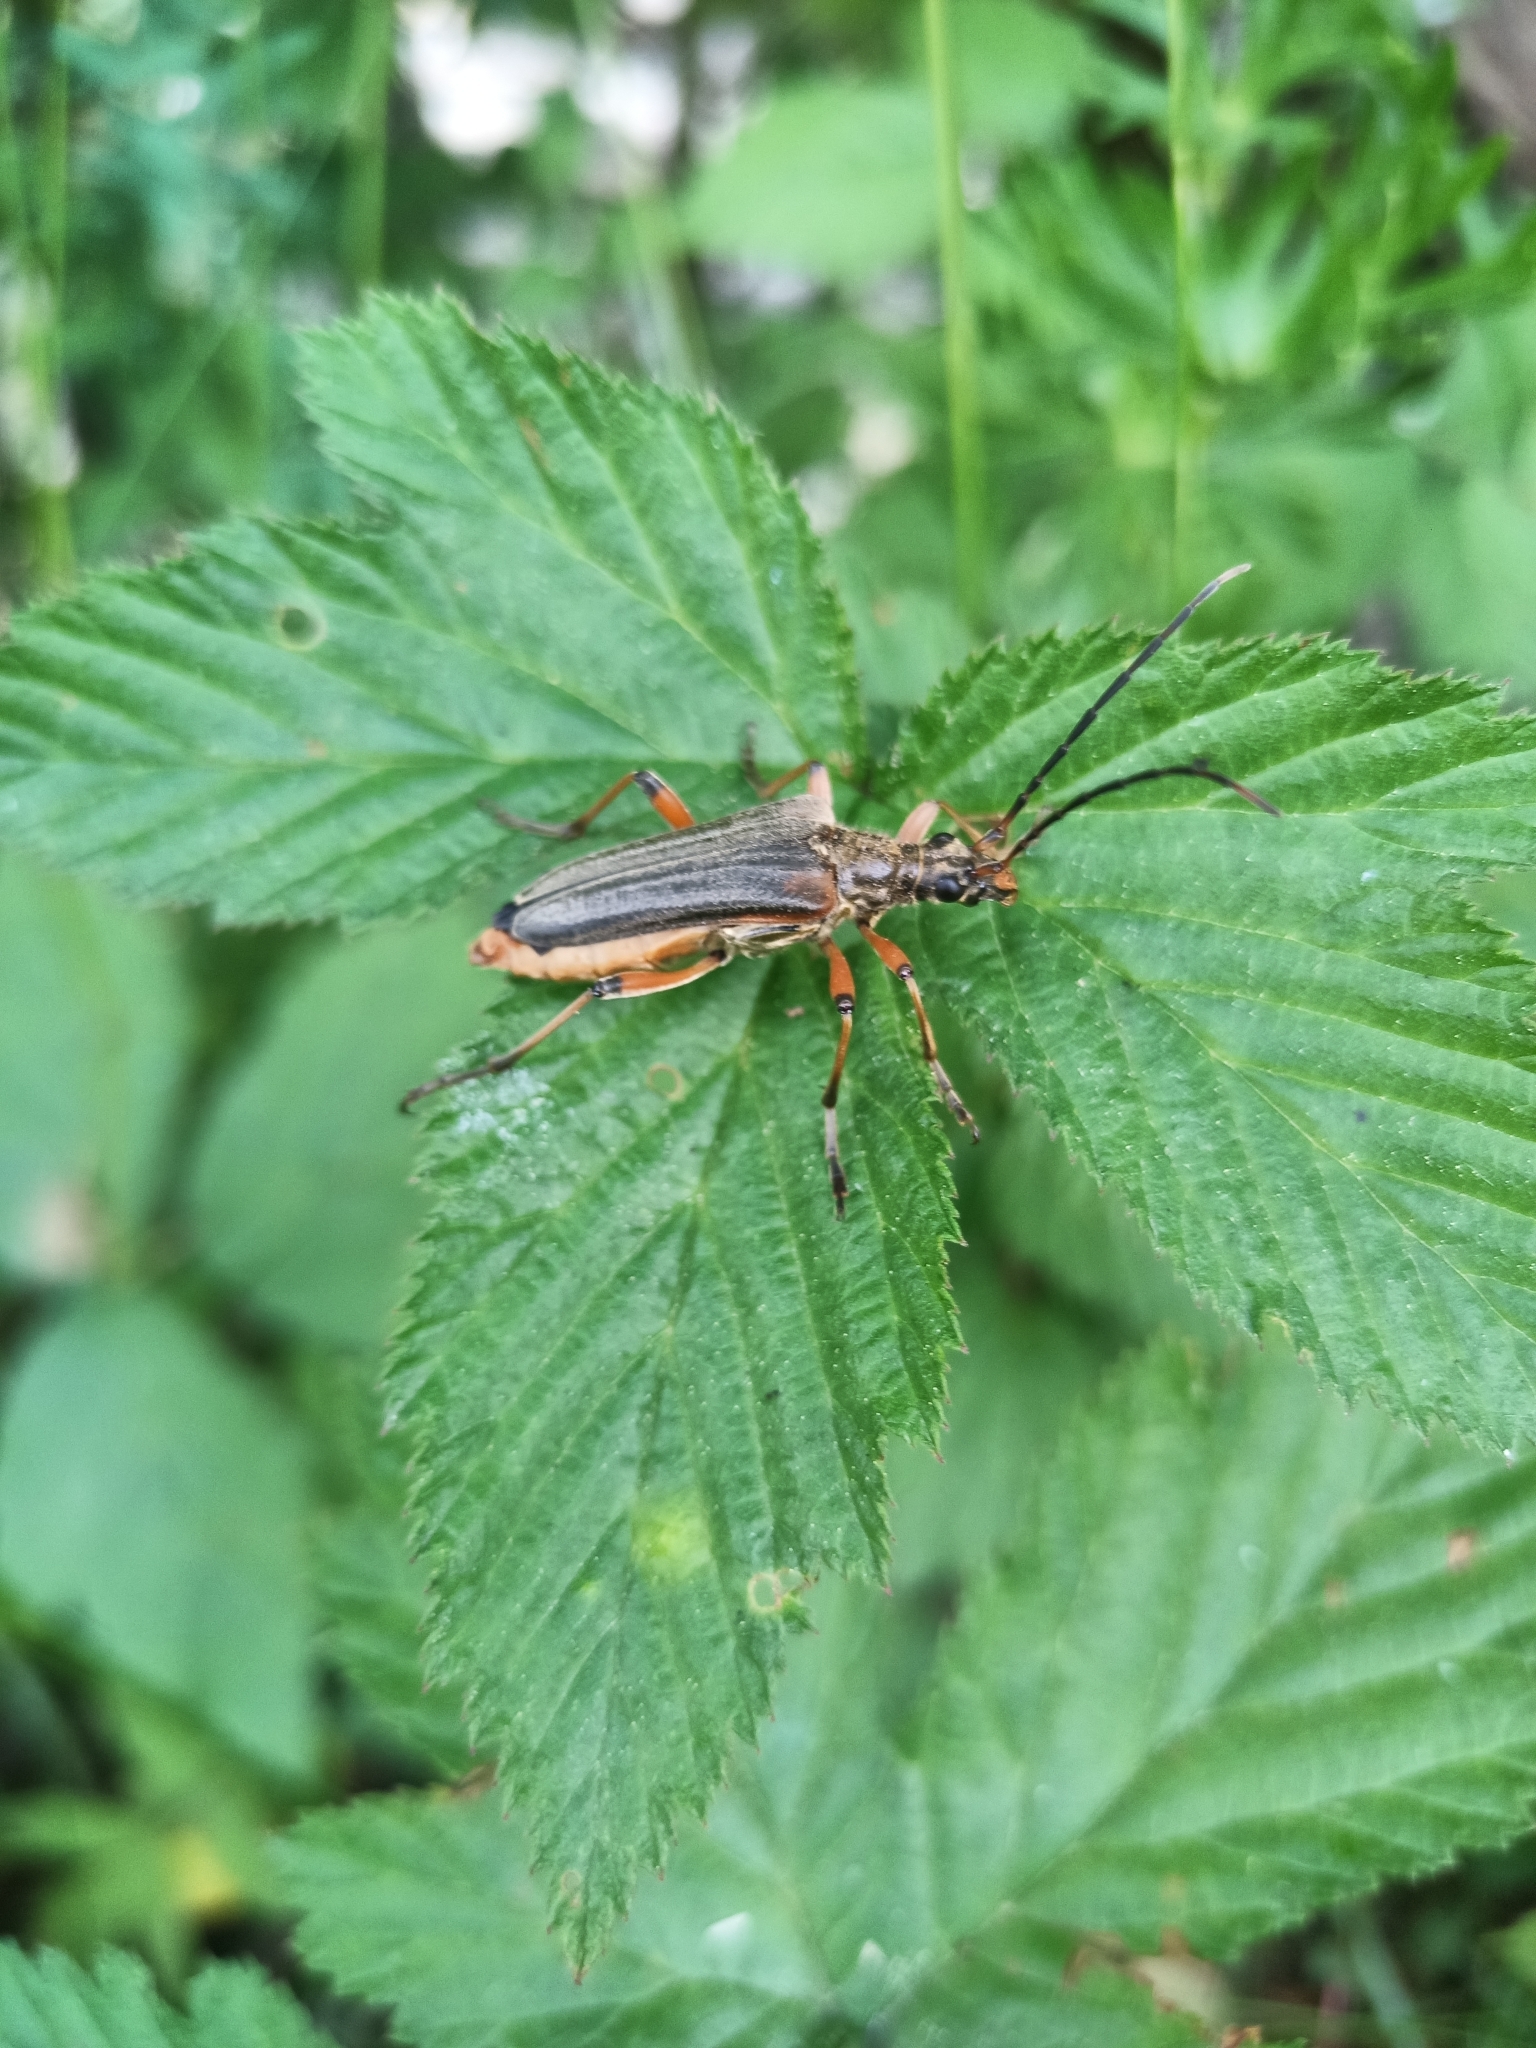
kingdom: Animalia
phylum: Arthropoda
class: Insecta
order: Coleoptera
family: Cerambycidae
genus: Stenocorus
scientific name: Stenocorus meridianus
